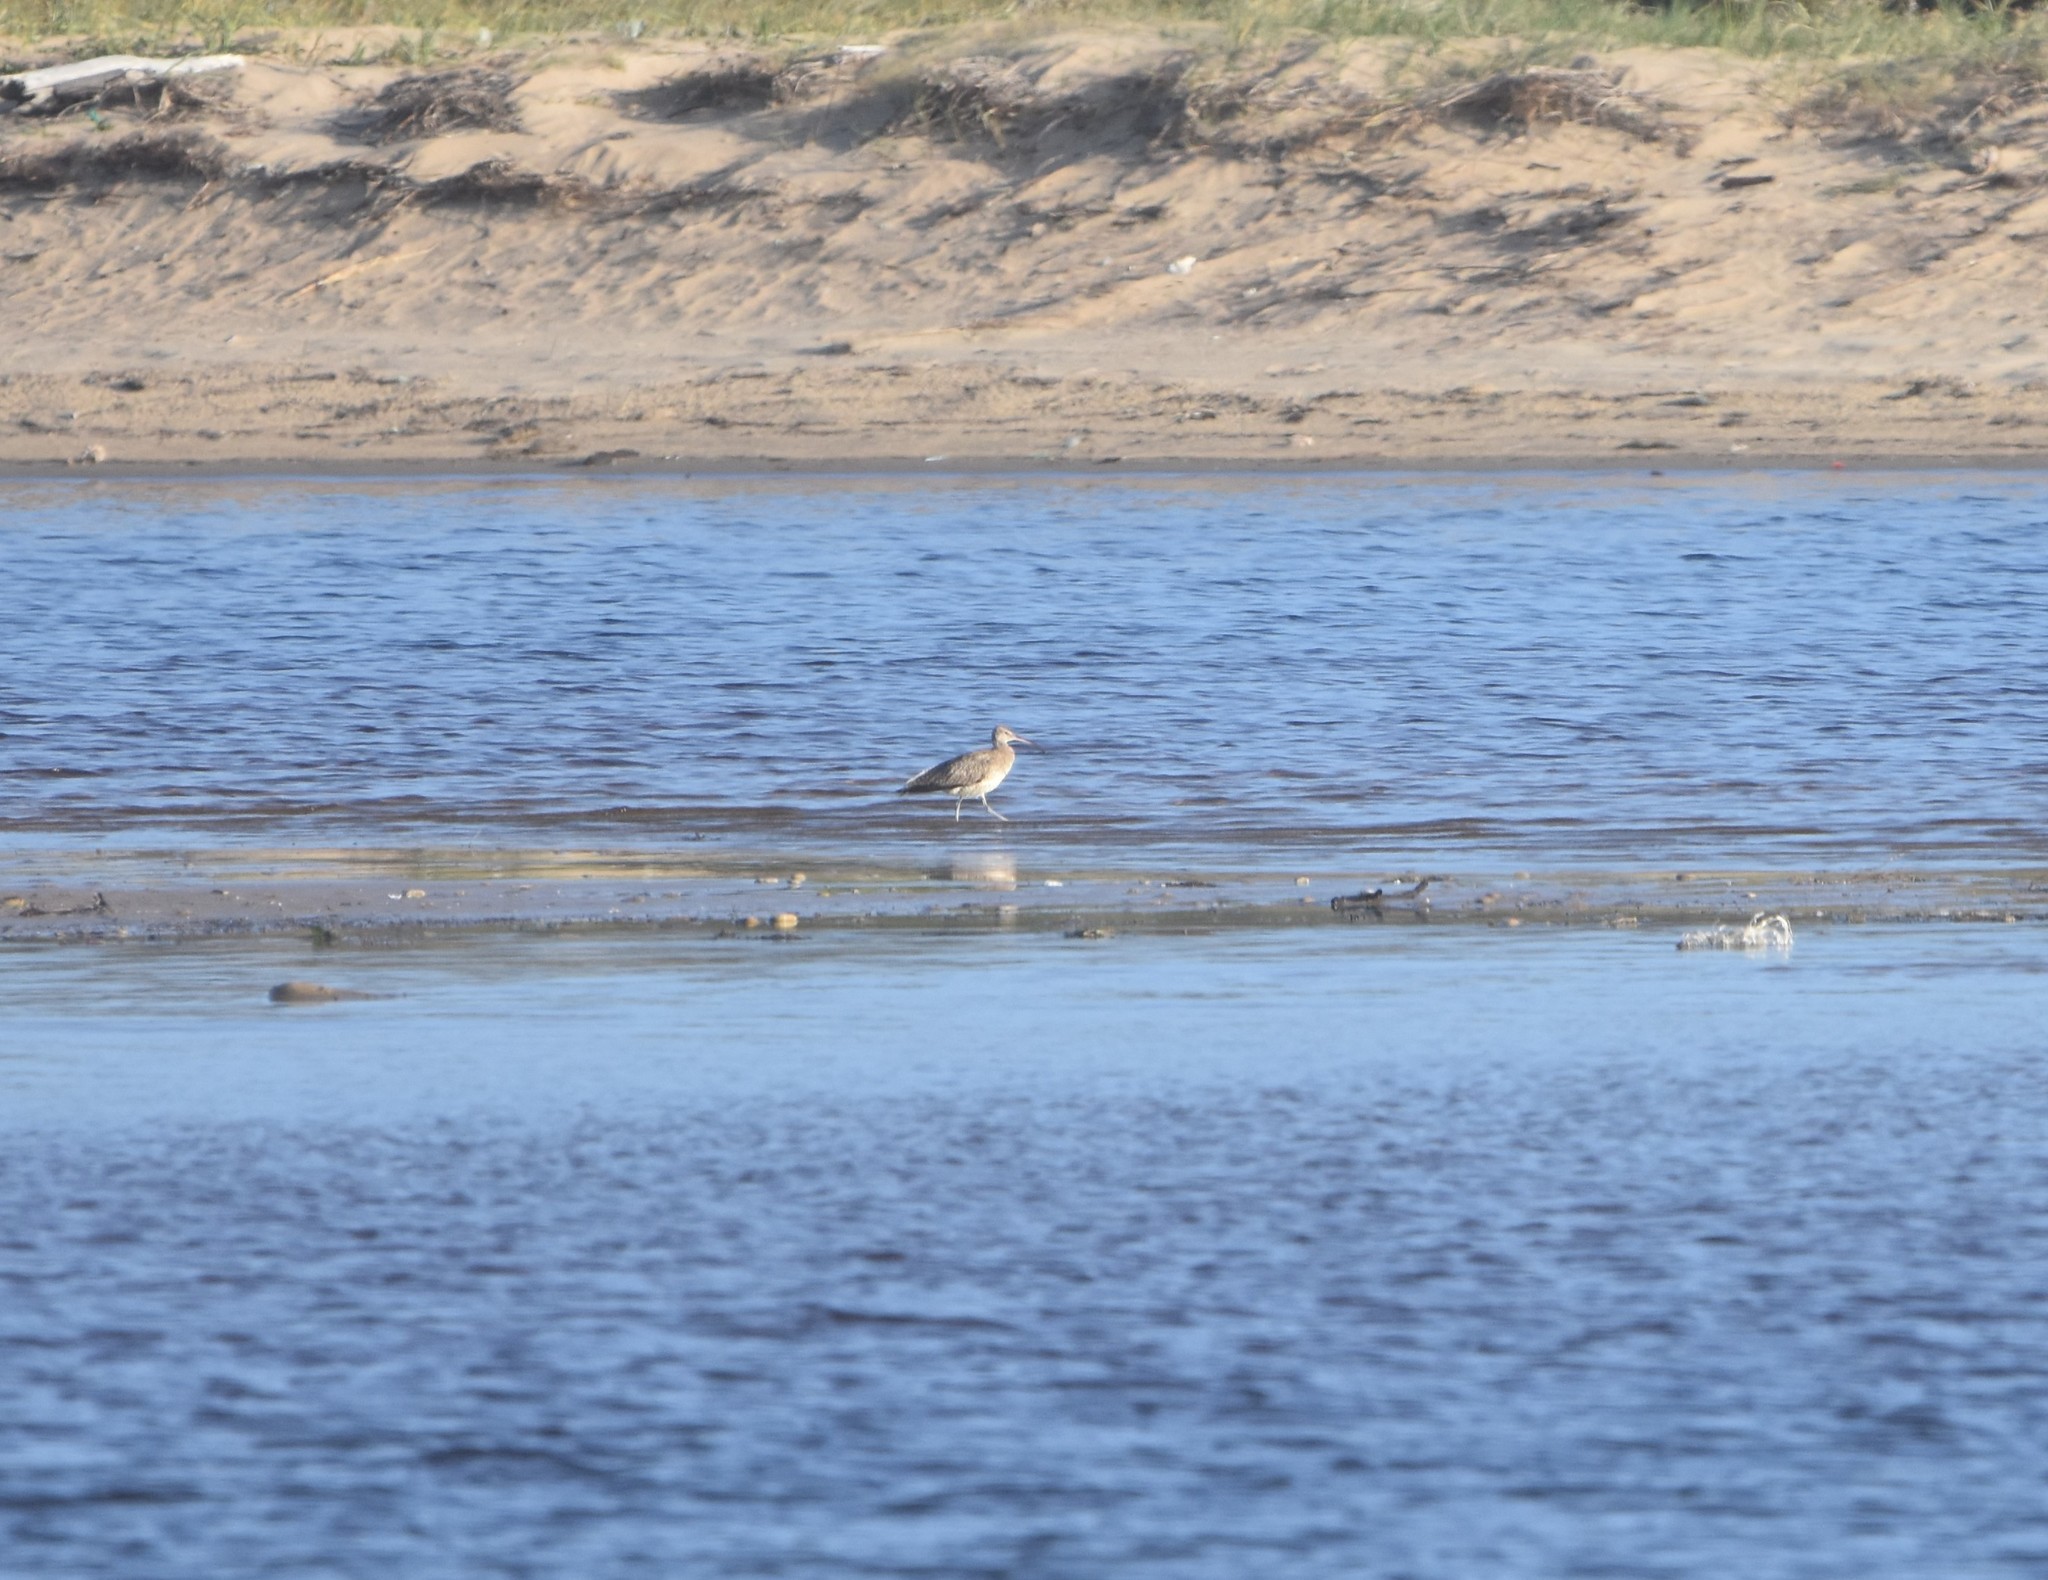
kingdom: Animalia
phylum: Chordata
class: Aves
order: Charadriiformes
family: Scolopacidae
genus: Numenius
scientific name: Numenius phaeopus
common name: Whimbrel
